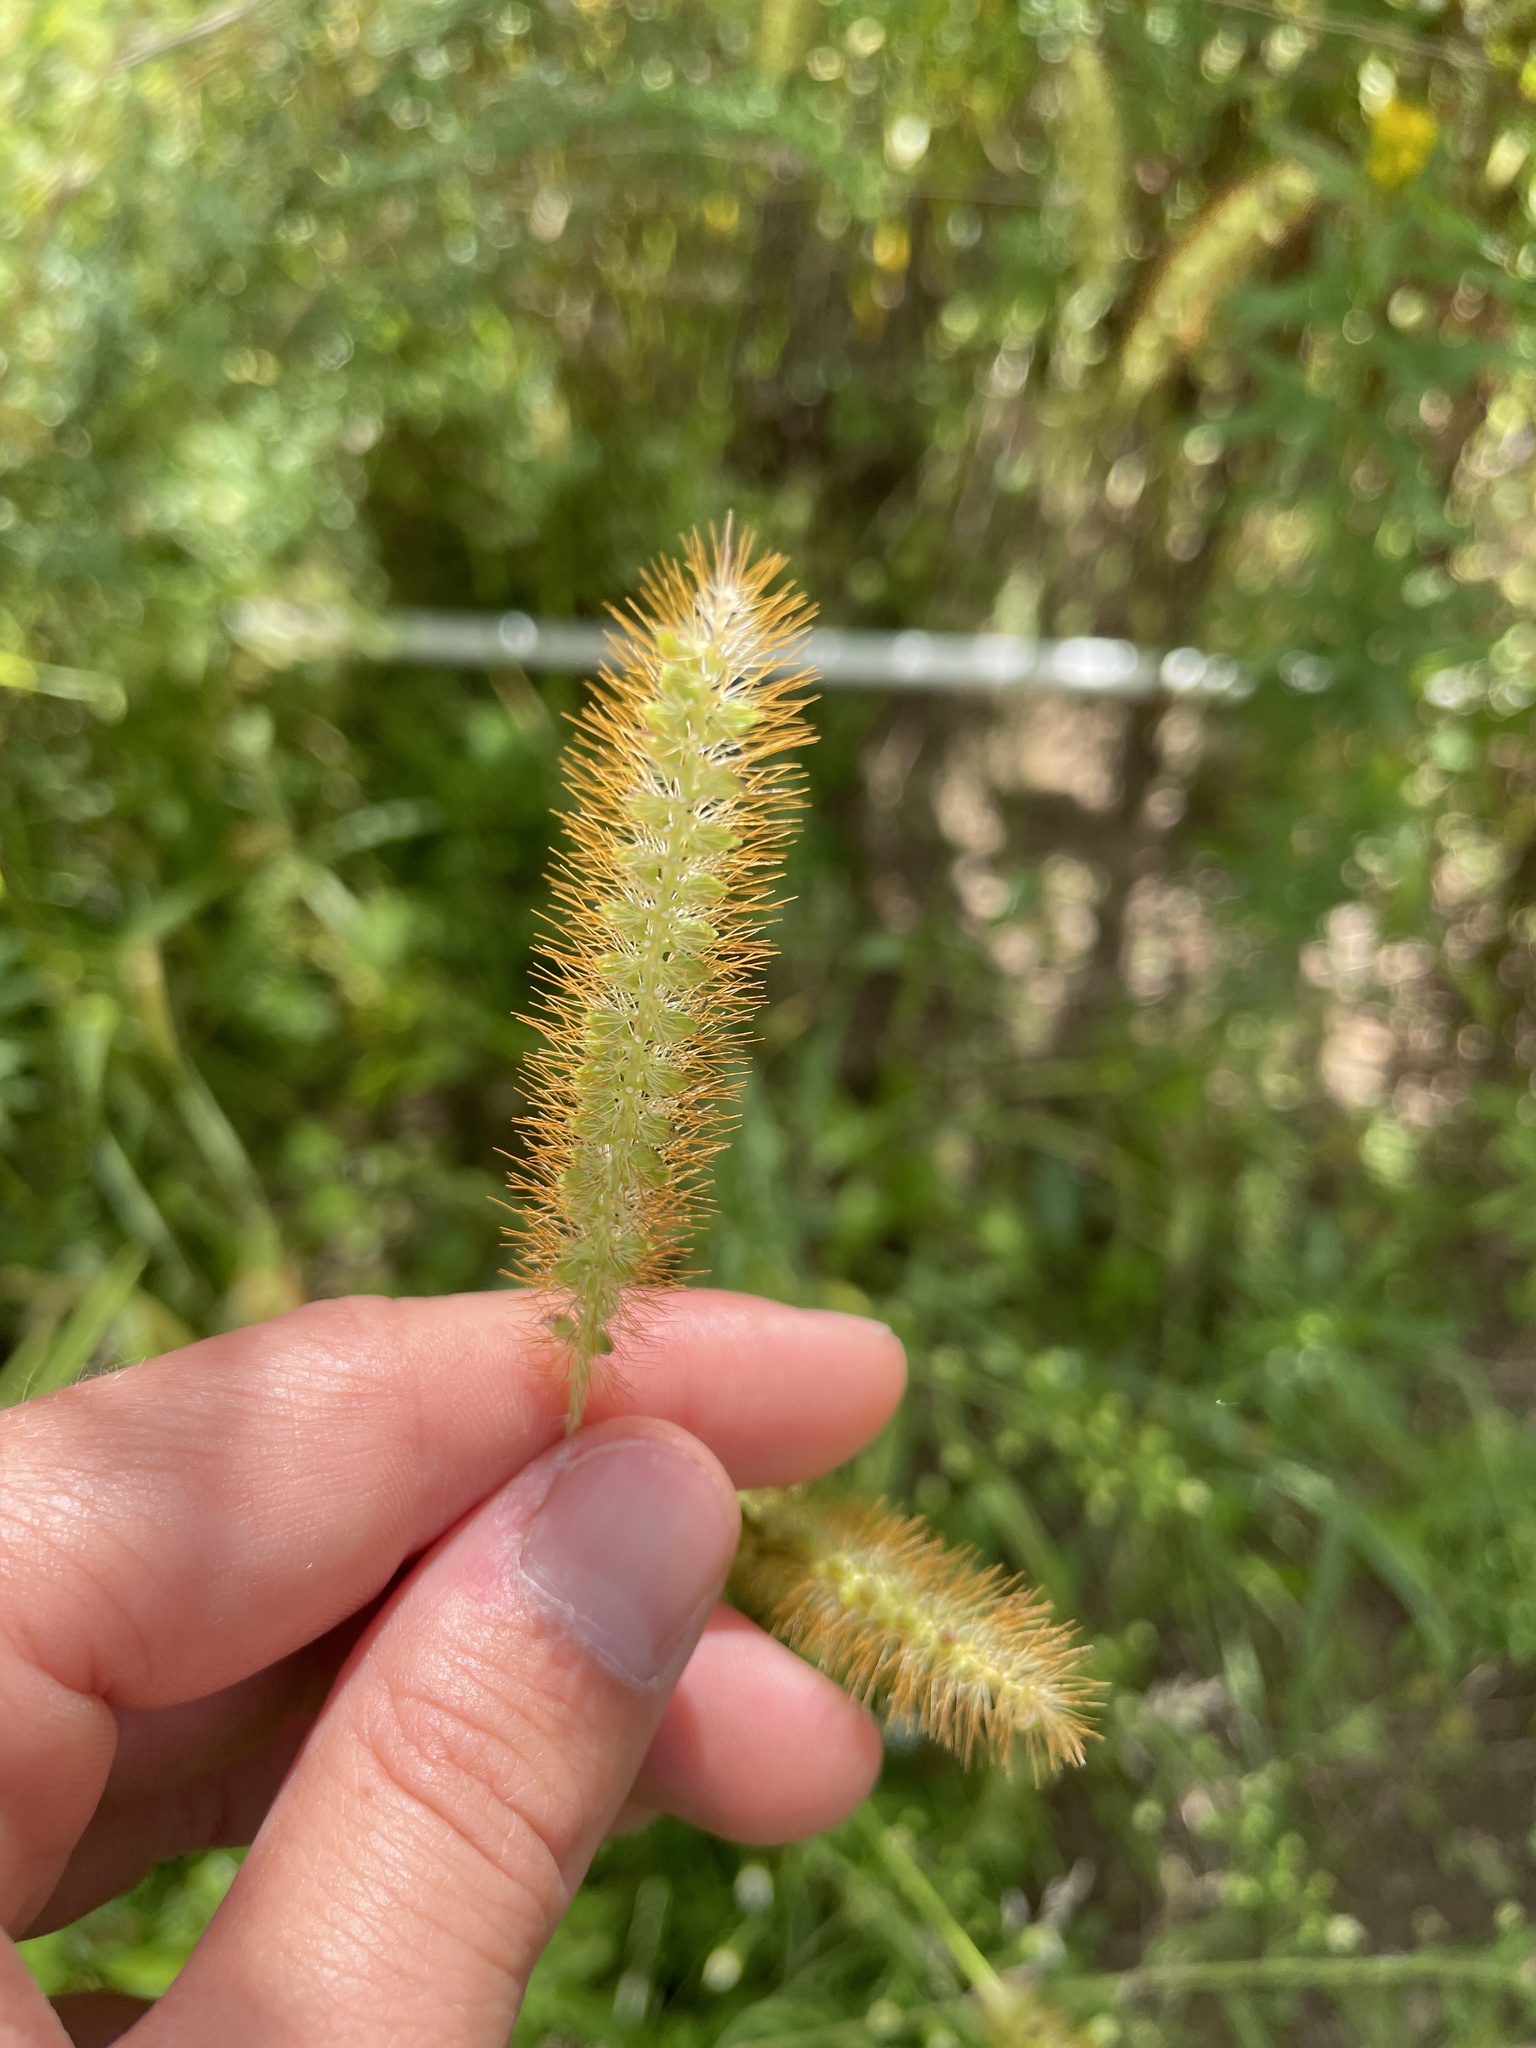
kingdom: Plantae
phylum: Tracheophyta
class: Liliopsida
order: Poales
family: Poaceae
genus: Setaria
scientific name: Setaria pumila
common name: Yellow bristle-grass
